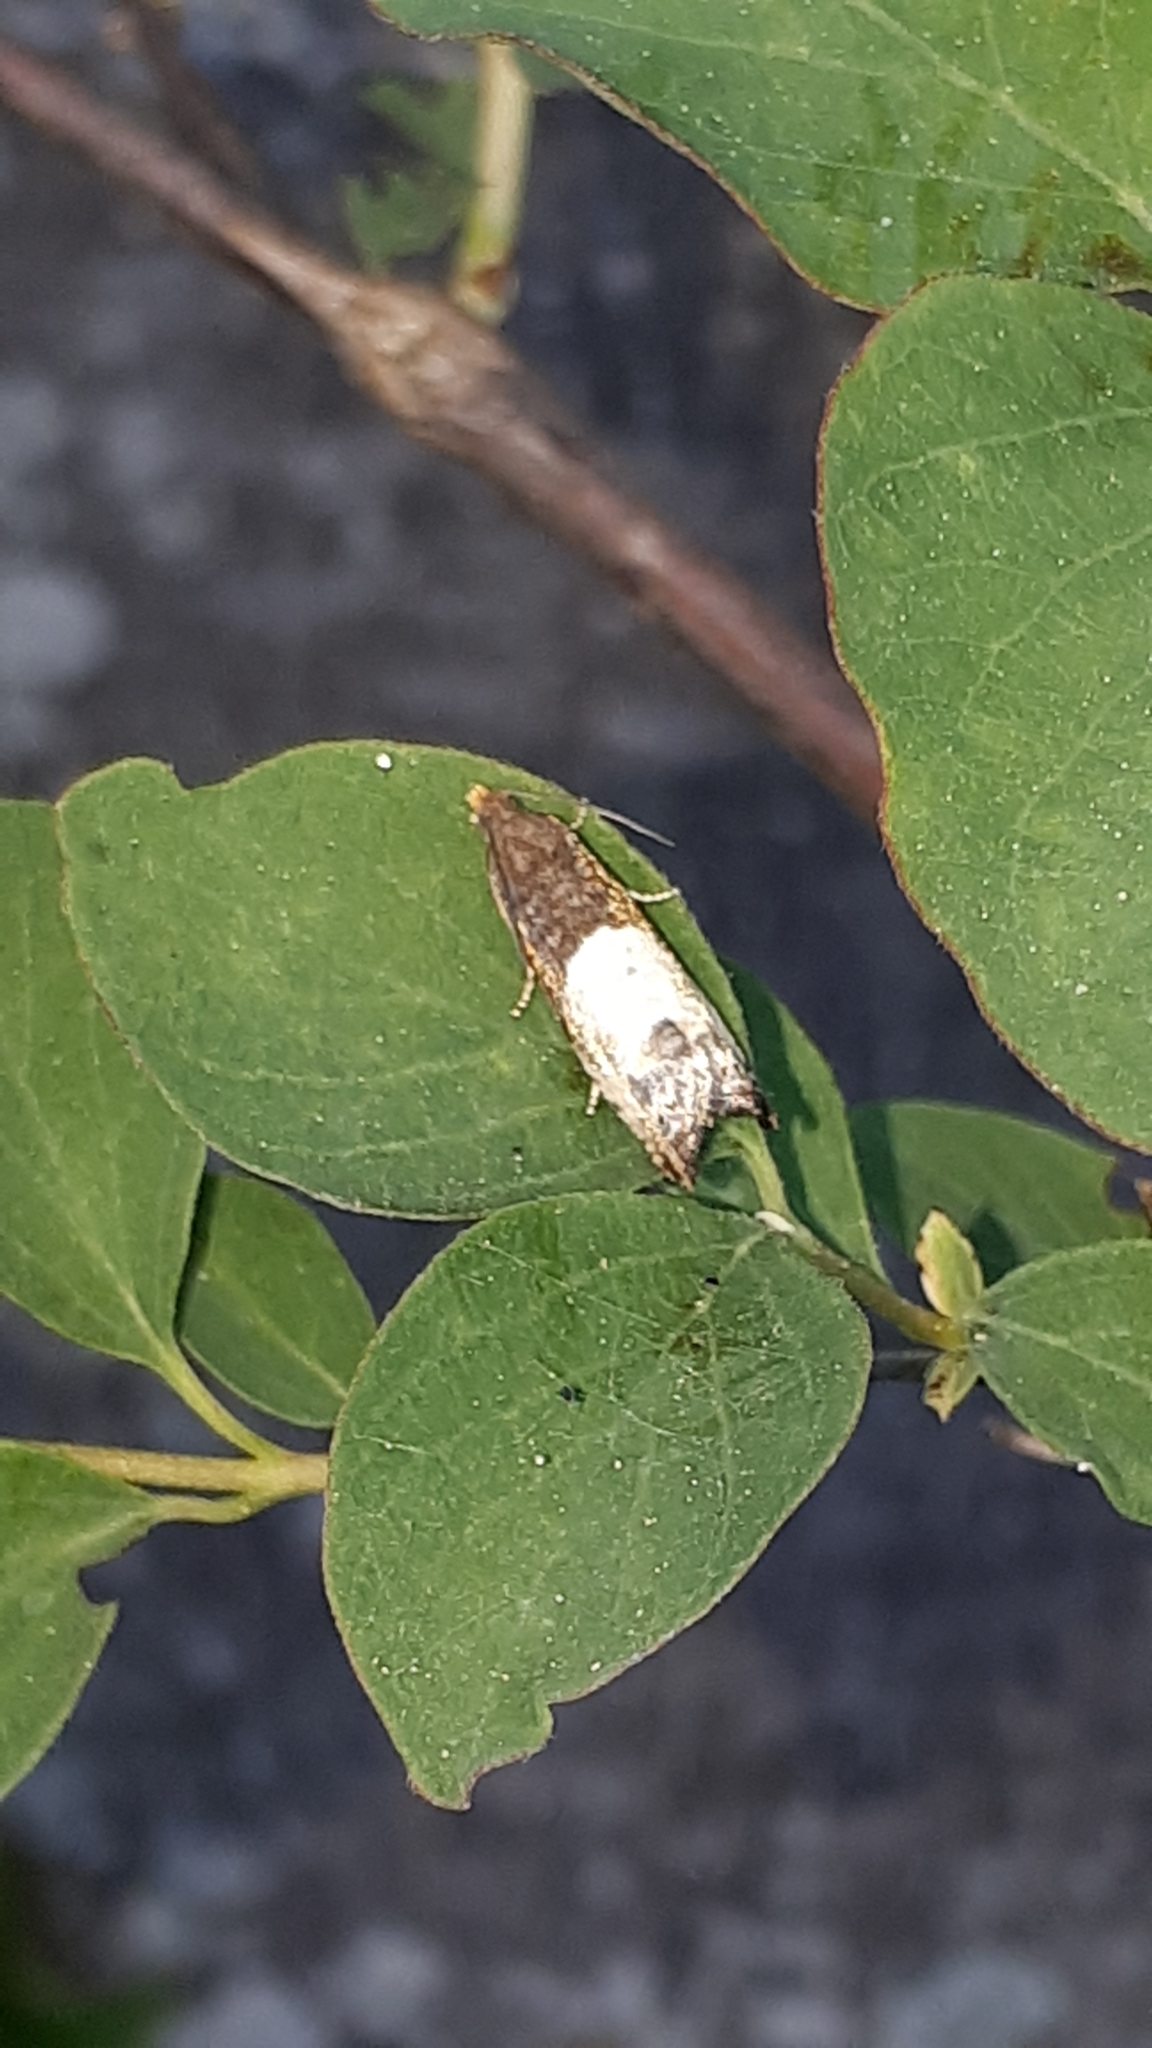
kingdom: Animalia
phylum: Arthropoda
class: Insecta
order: Lepidoptera
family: Tortricidae
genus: Notocelia
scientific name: Notocelia cynosbatella
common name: Yellow-faced bell moth
